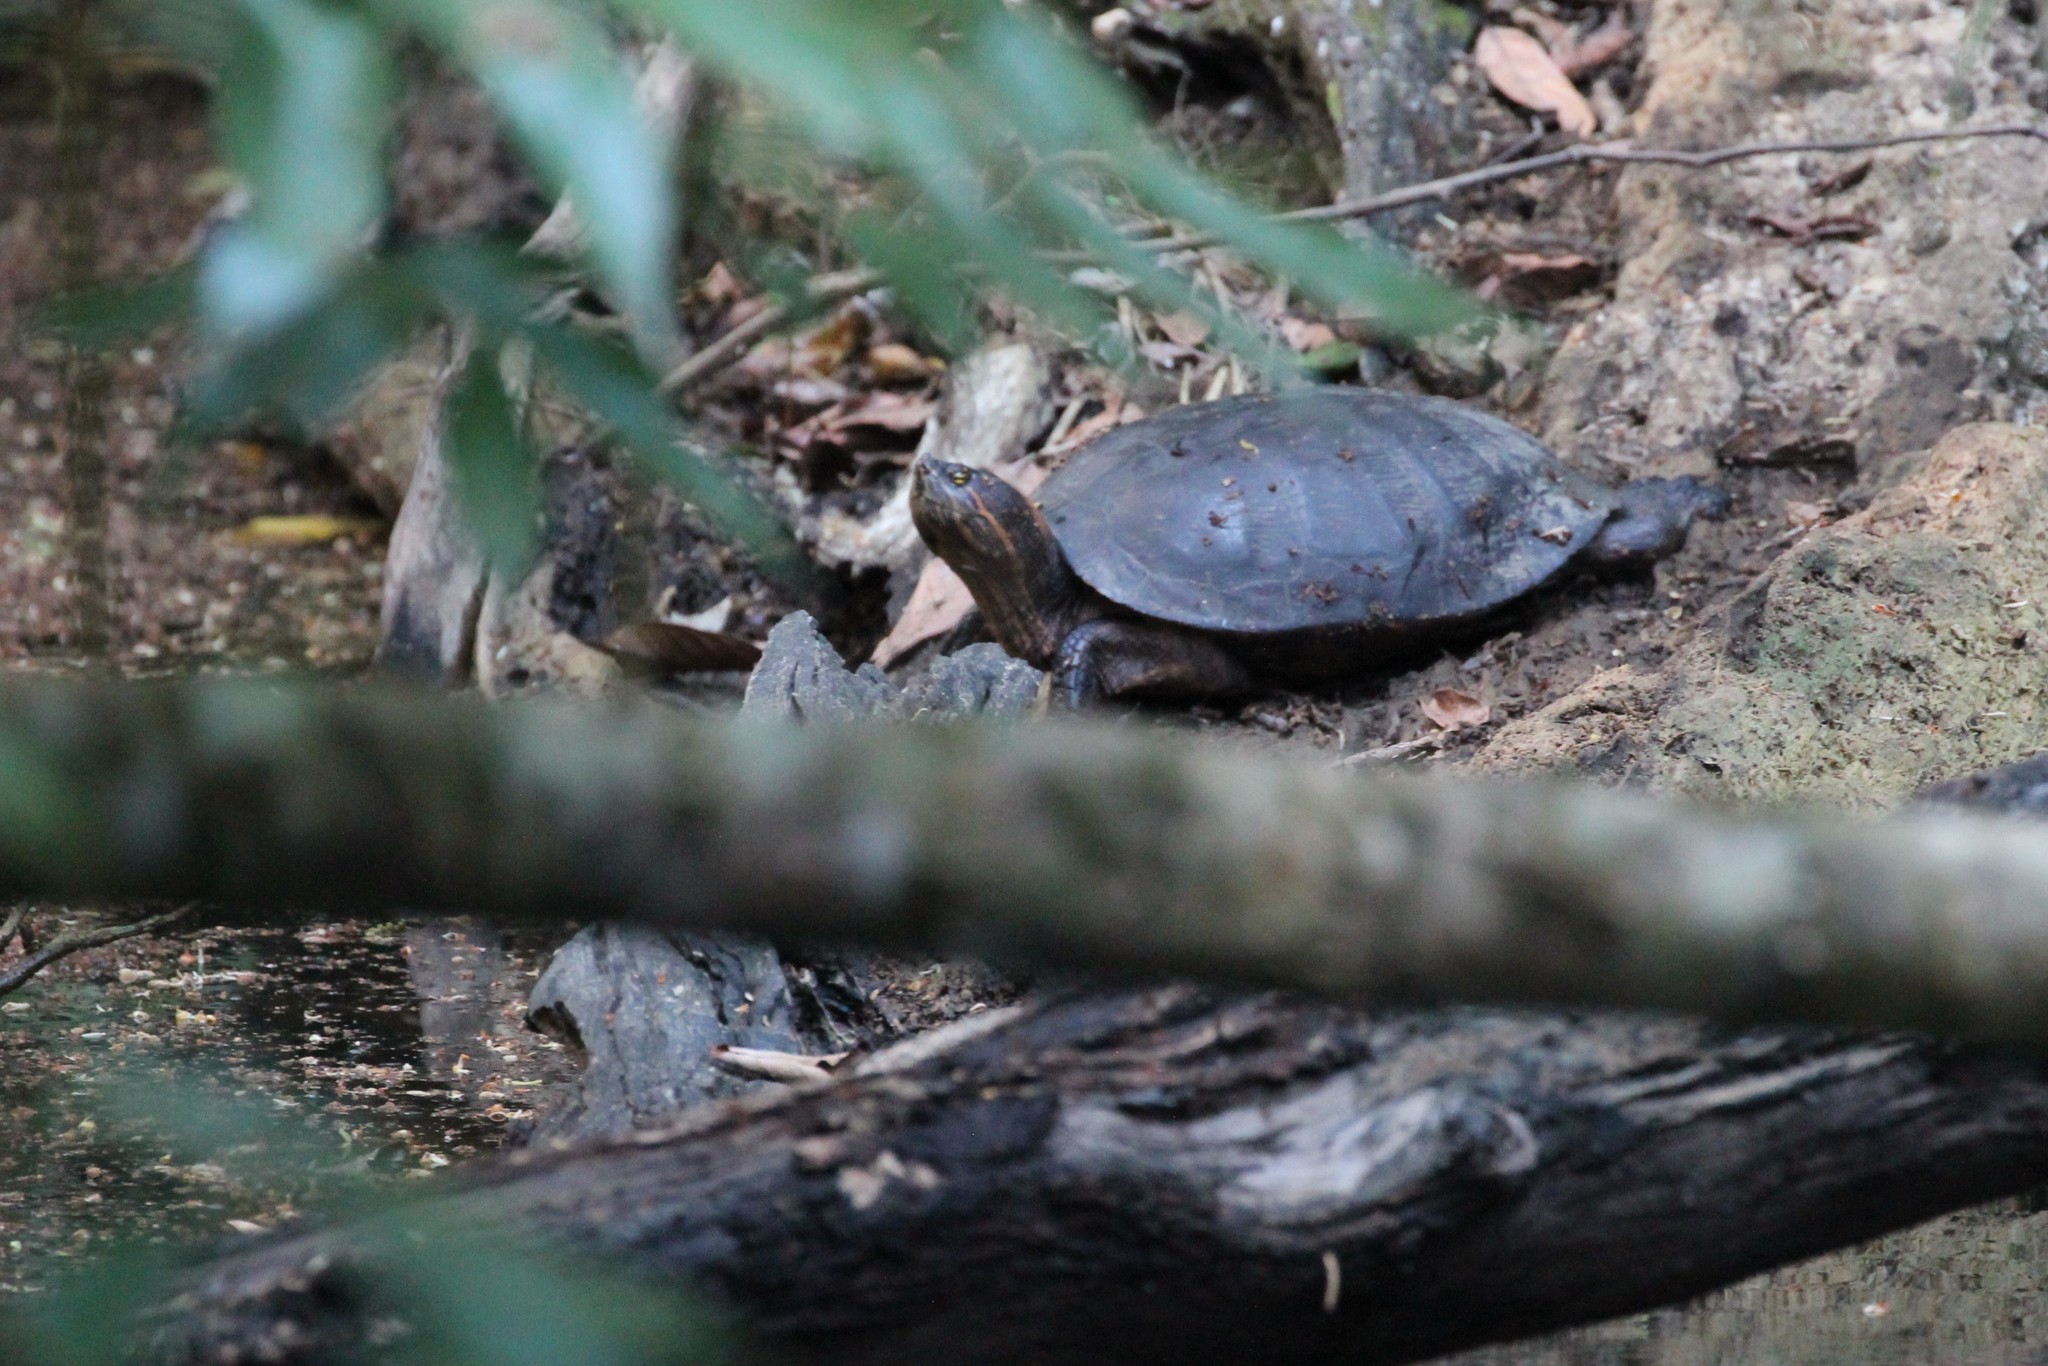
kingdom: Animalia
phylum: Chordata
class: Testudines
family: Emydidae
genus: Trachemys
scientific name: Trachemys venusta
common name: Mesoamerican slider
